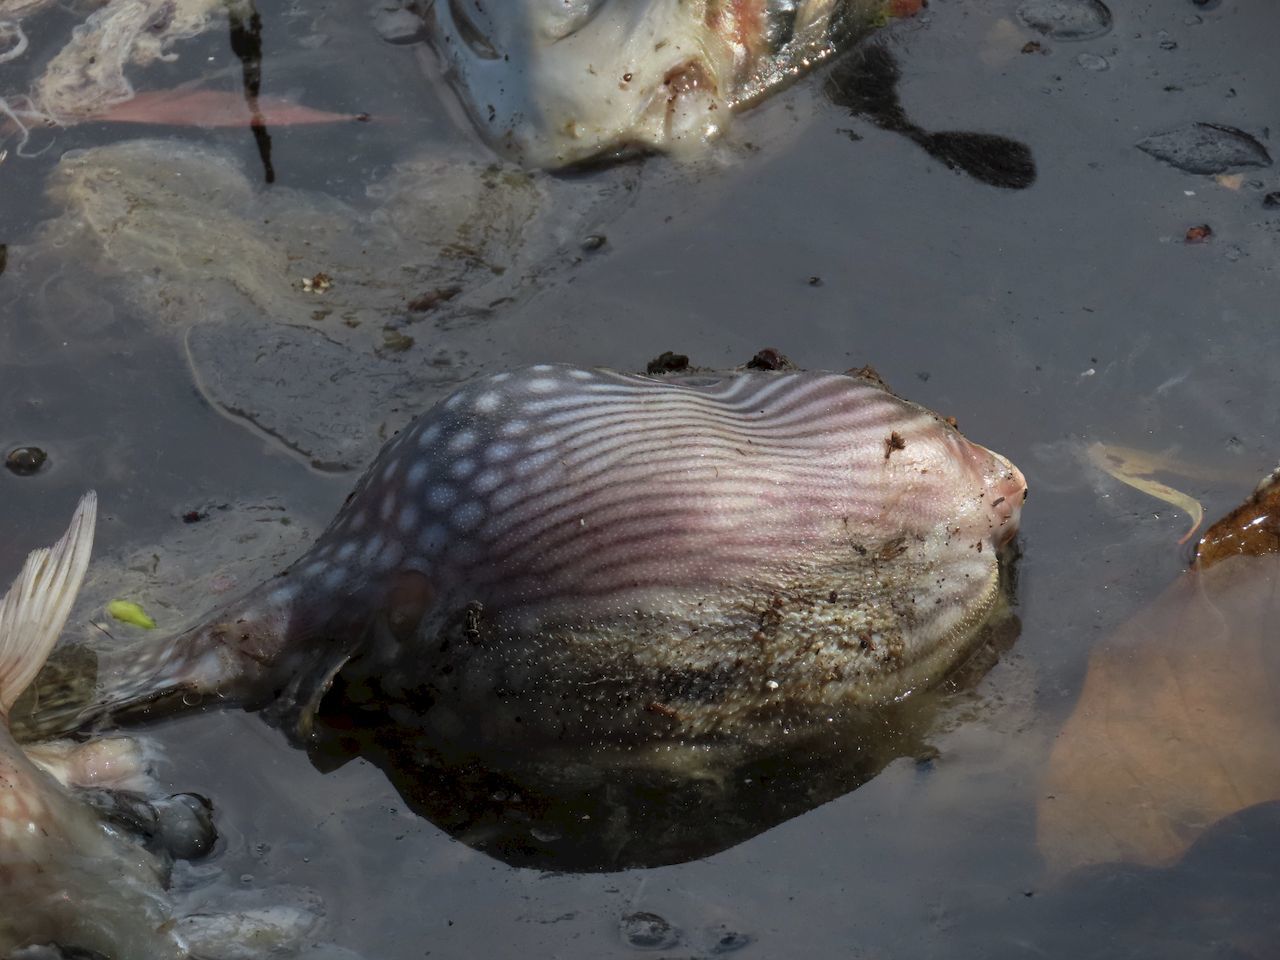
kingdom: Animalia
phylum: Chordata
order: Tetraodontiformes
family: Tetraodontidae
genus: Arothron
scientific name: Arothron hispidus
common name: Stripebelly puffer
